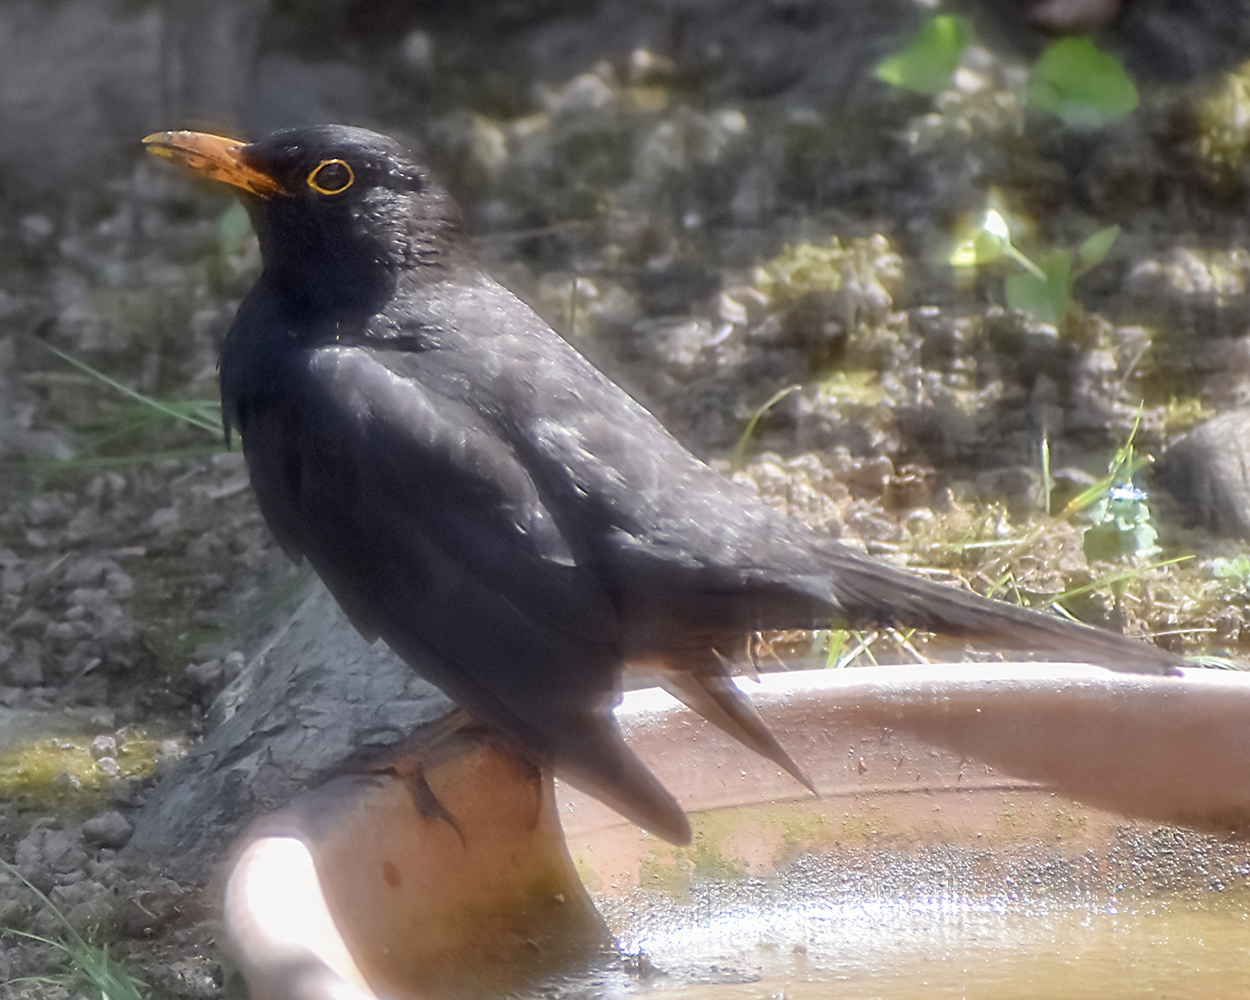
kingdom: Animalia
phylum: Chordata
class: Aves
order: Passeriformes
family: Turdidae
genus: Turdus
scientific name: Turdus merula
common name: Common blackbird
